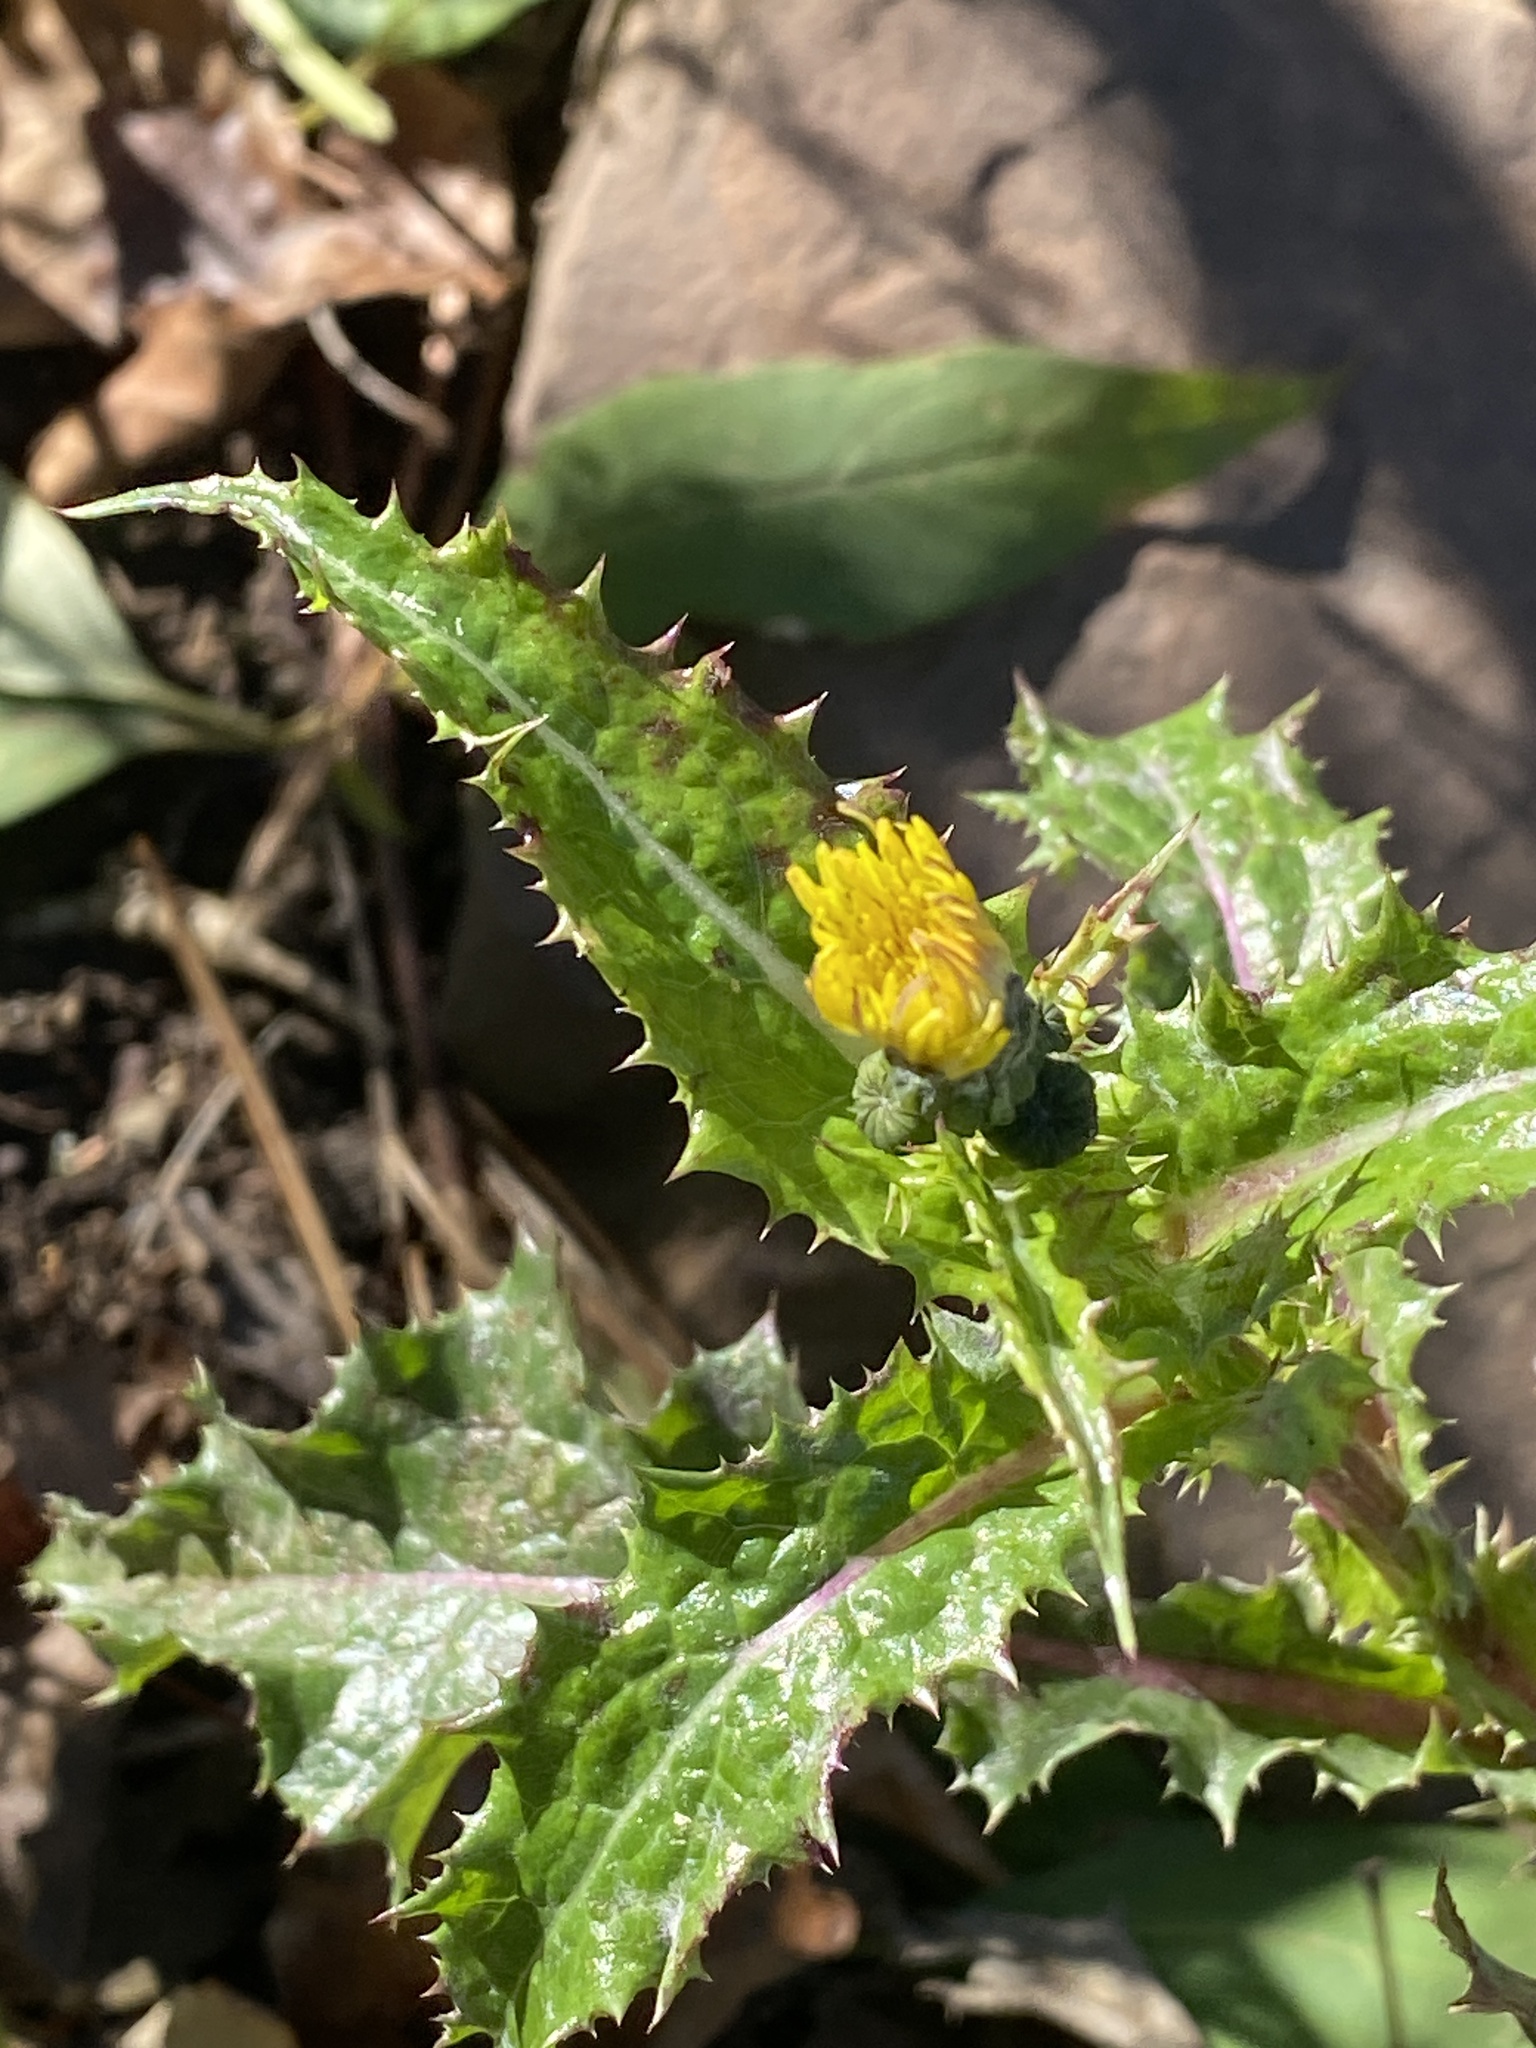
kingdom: Plantae
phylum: Tracheophyta
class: Magnoliopsida
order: Asterales
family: Asteraceae
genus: Sonchus
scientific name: Sonchus asper
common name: Prickly sow-thistle
